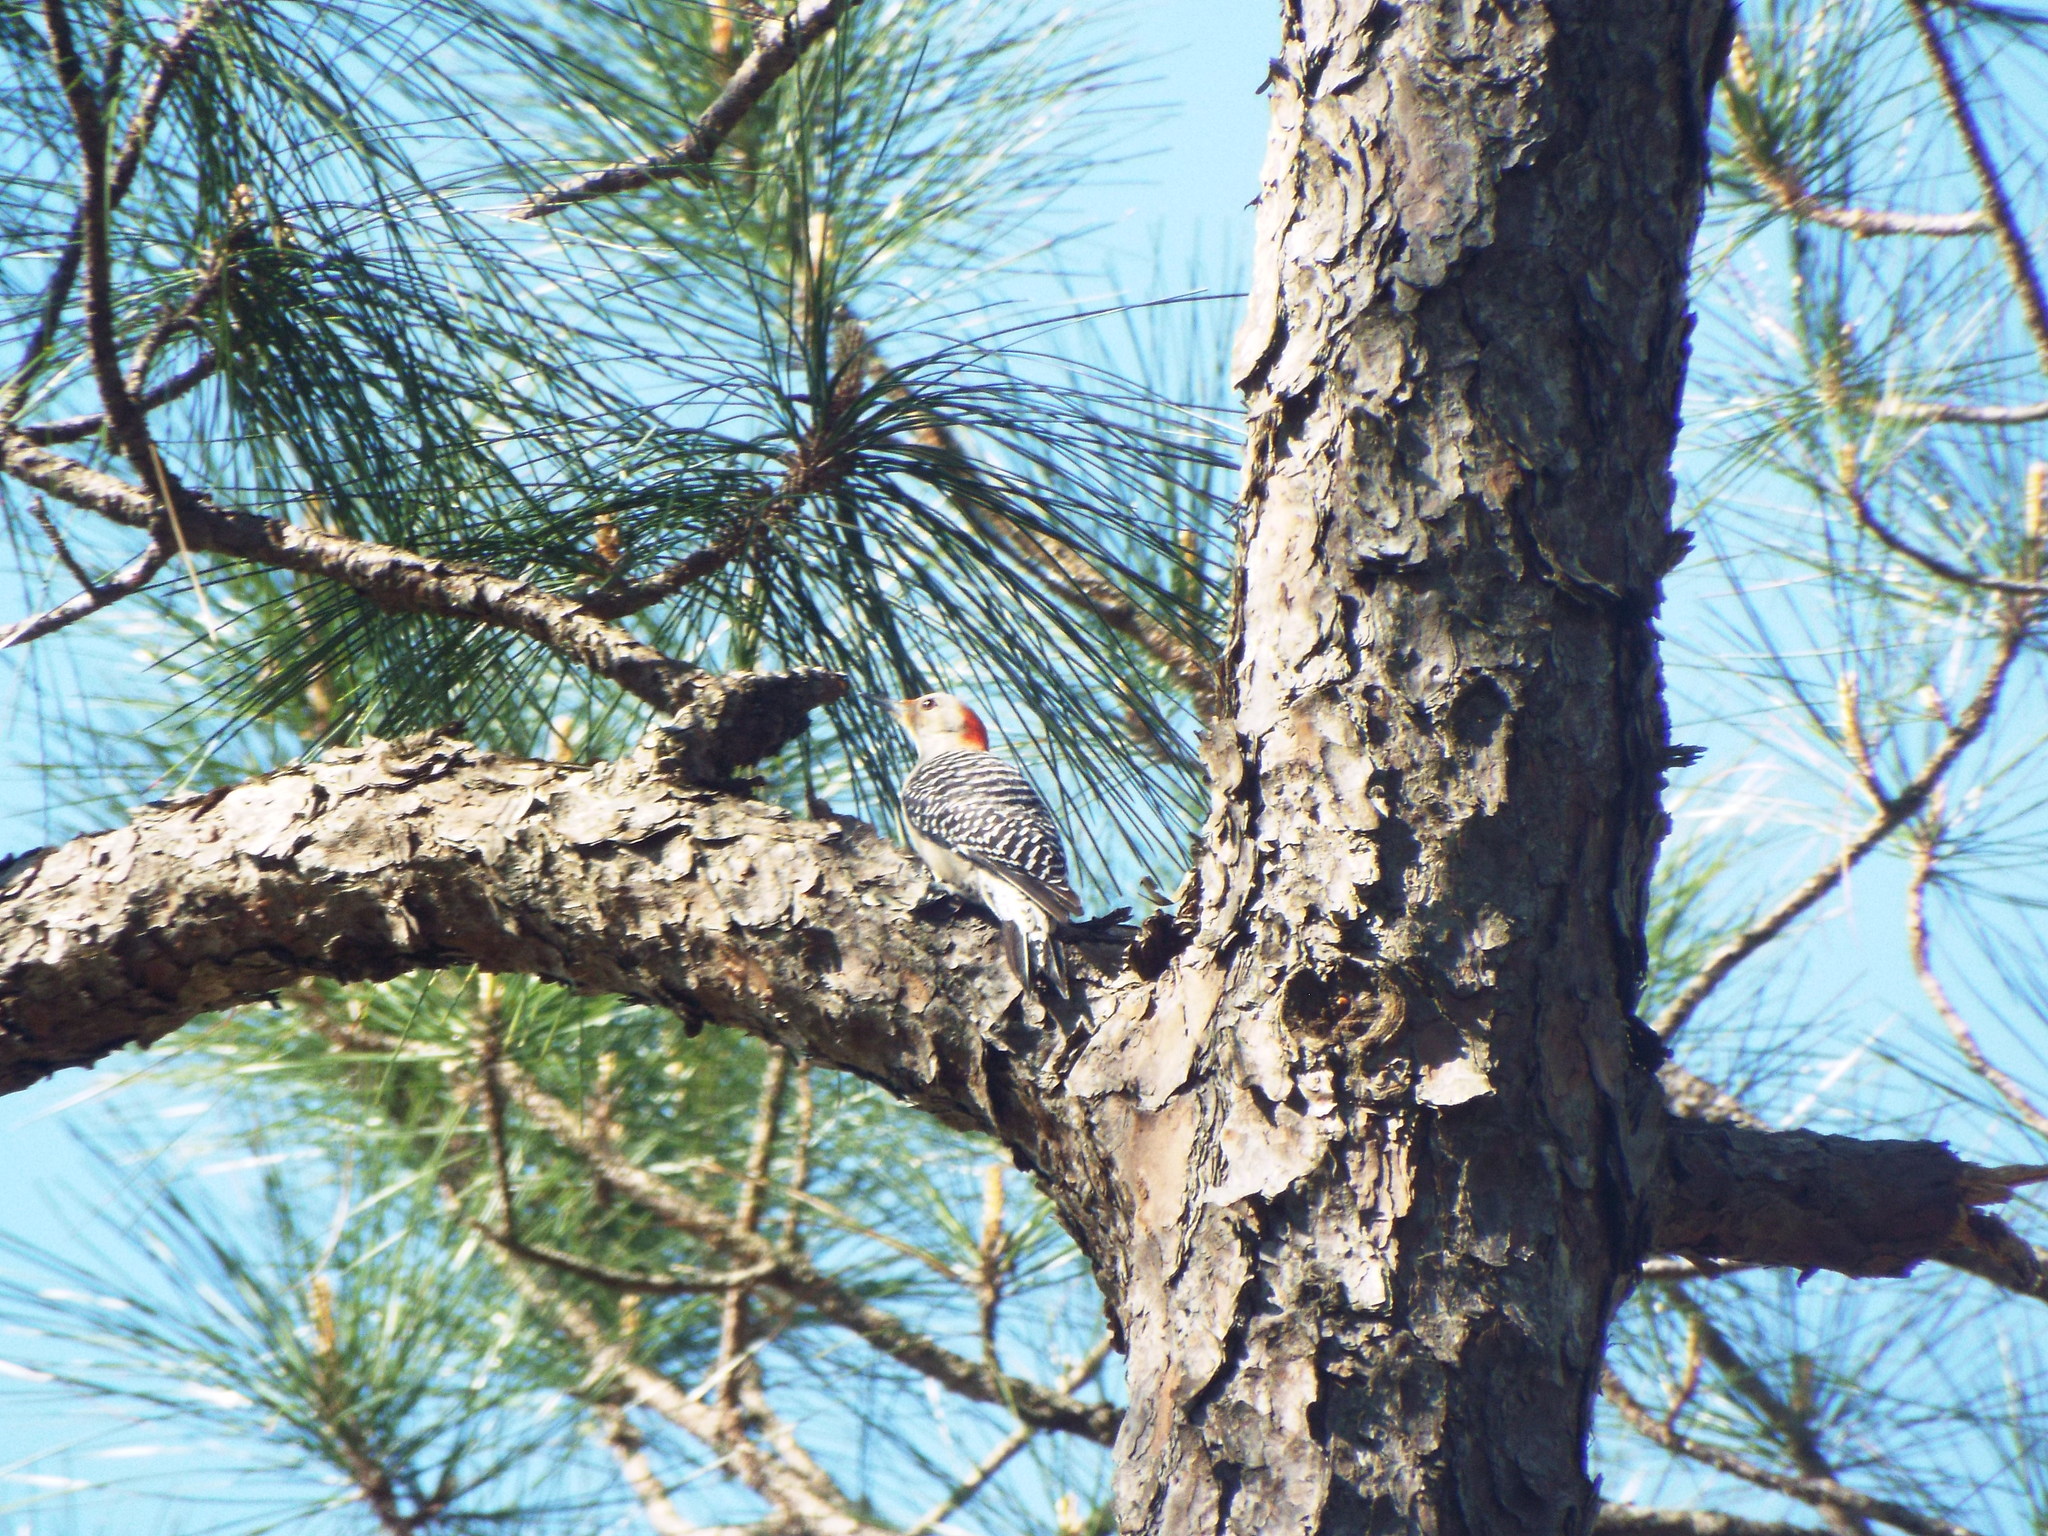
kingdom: Animalia
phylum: Chordata
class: Aves
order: Piciformes
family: Picidae
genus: Melanerpes
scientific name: Melanerpes carolinus
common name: Red-bellied woodpecker
